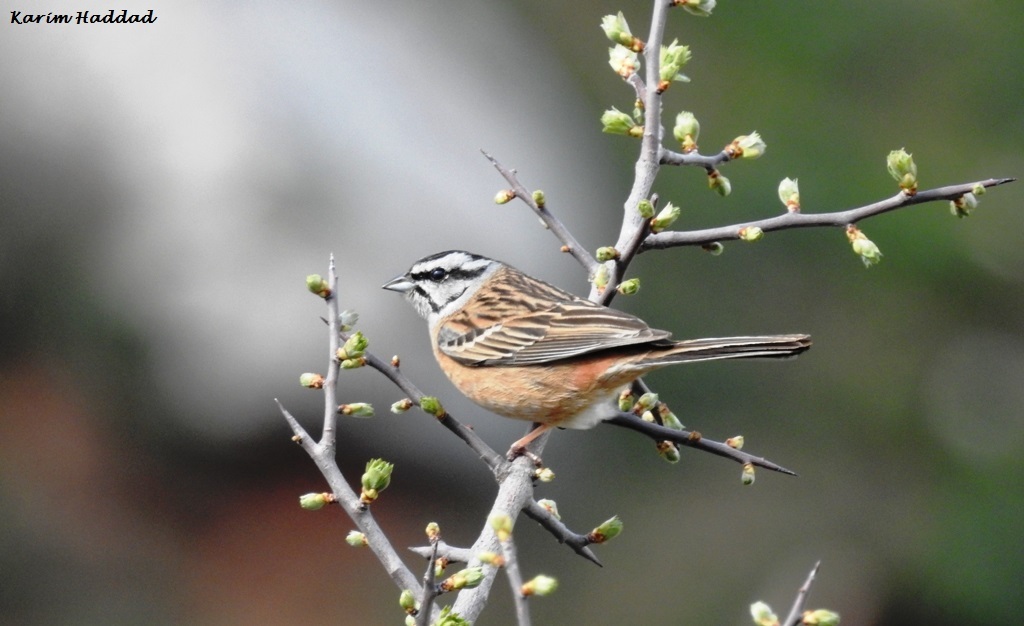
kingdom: Animalia
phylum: Chordata
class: Aves
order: Passeriformes
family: Emberizidae
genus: Emberiza
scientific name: Emberiza cia
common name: Rock bunting
